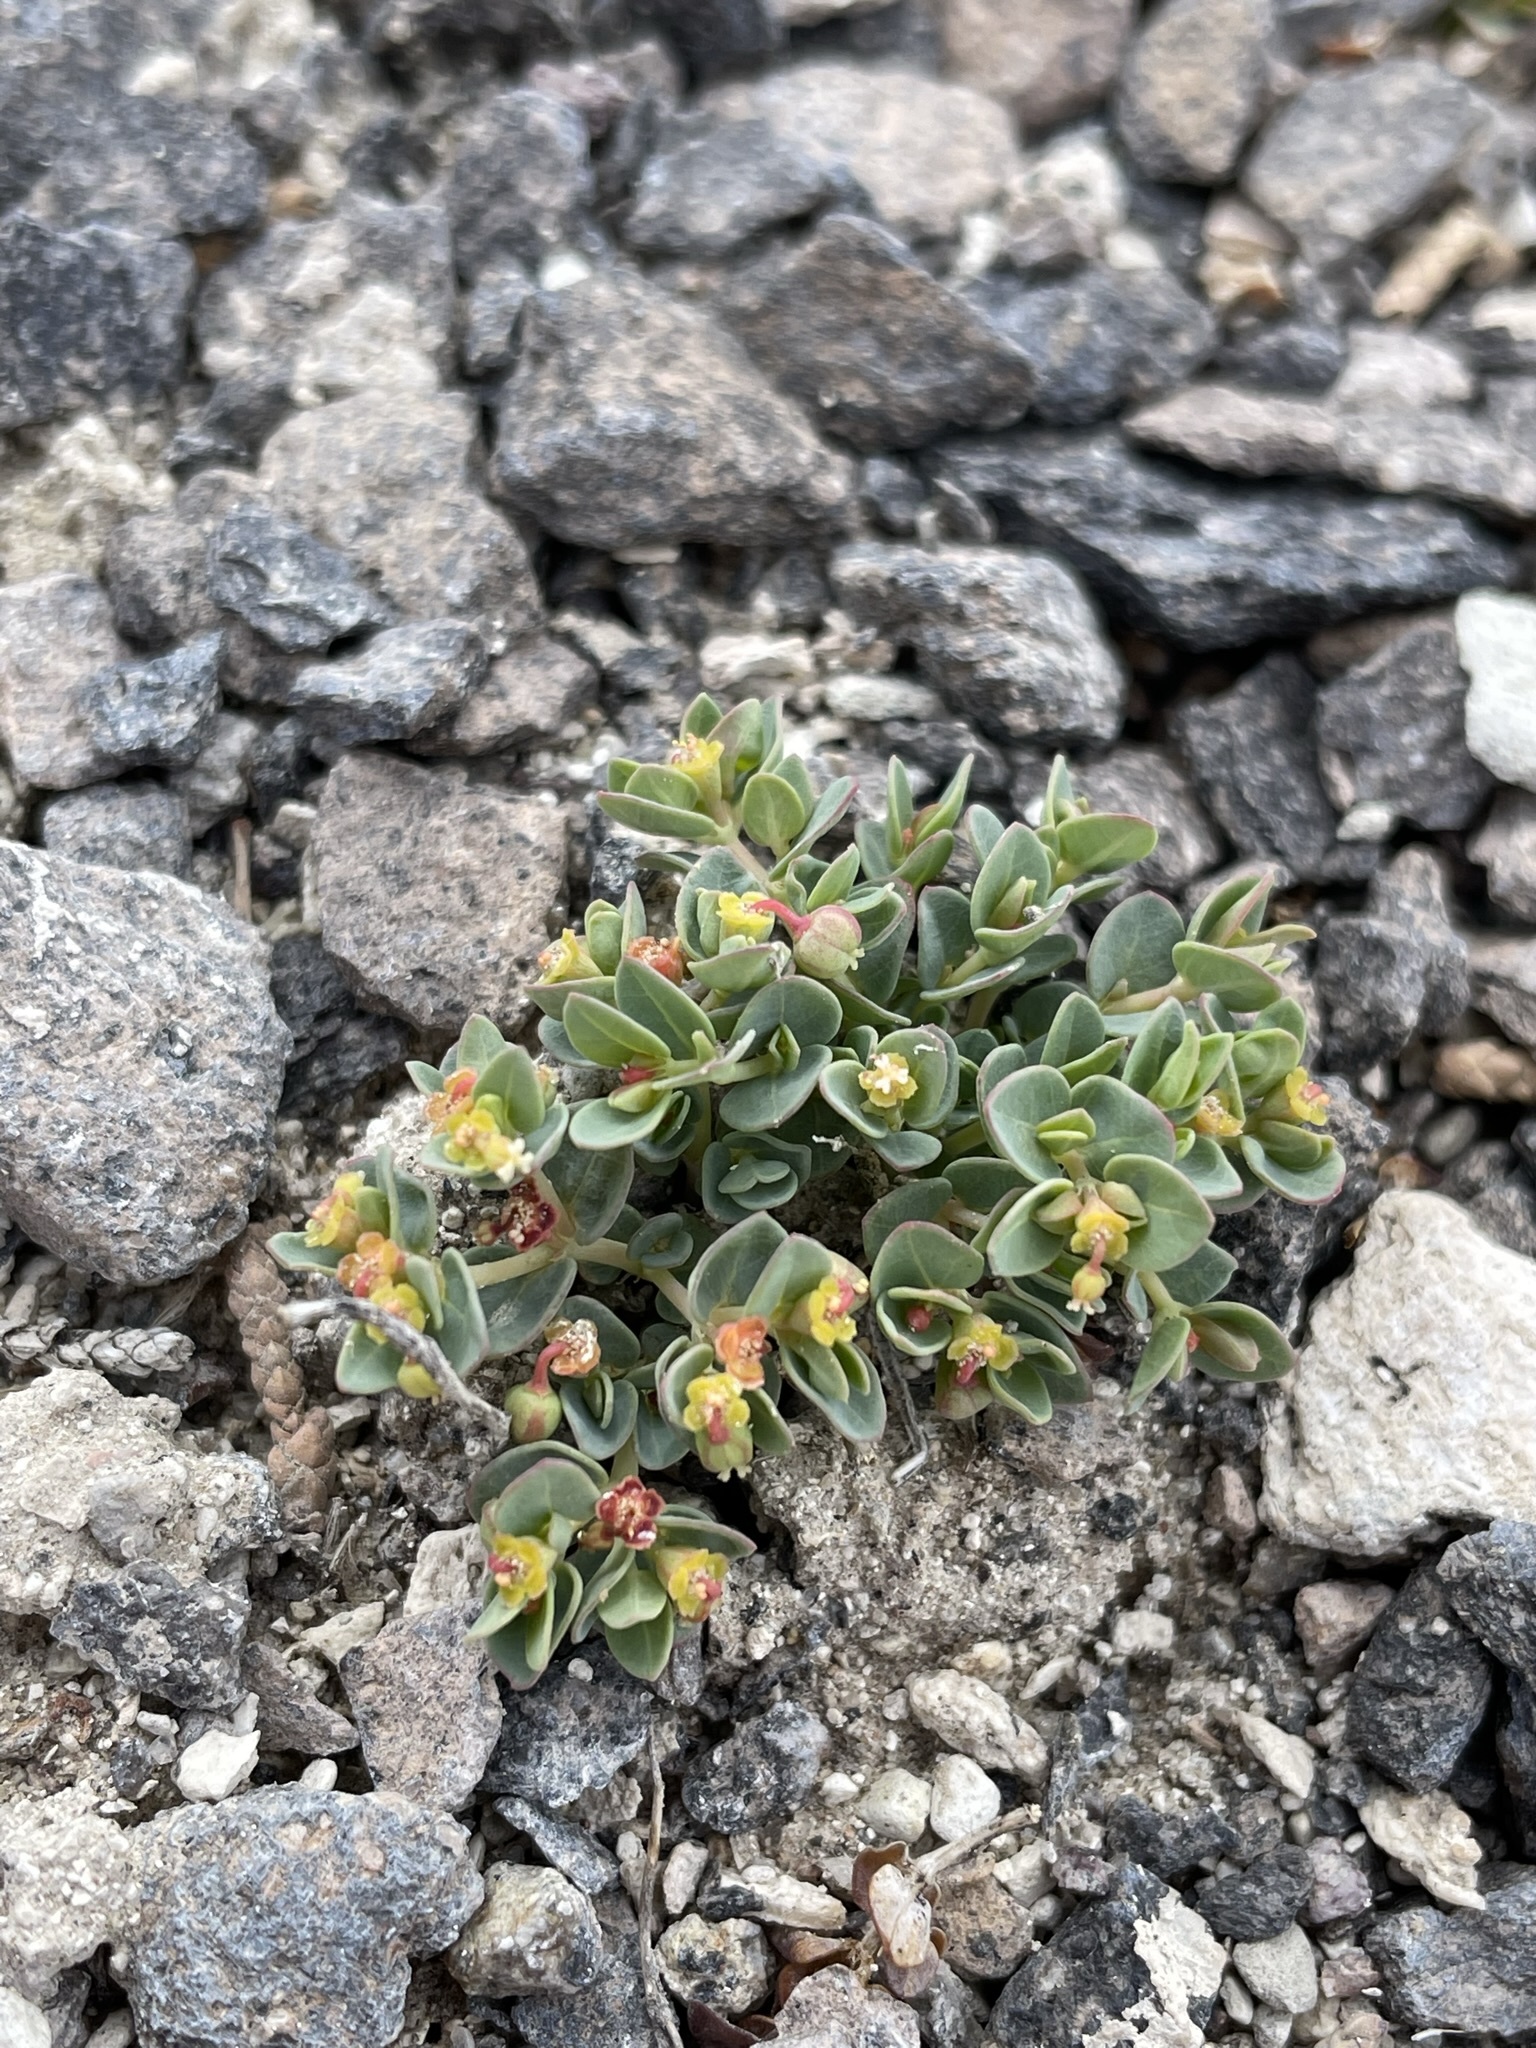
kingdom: Plantae
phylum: Tracheophyta
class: Magnoliopsida
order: Malpighiales
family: Euphorbiaceae
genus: Euphorbia
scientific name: Euphorbia fendleri
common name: Fendler's euphorbia
